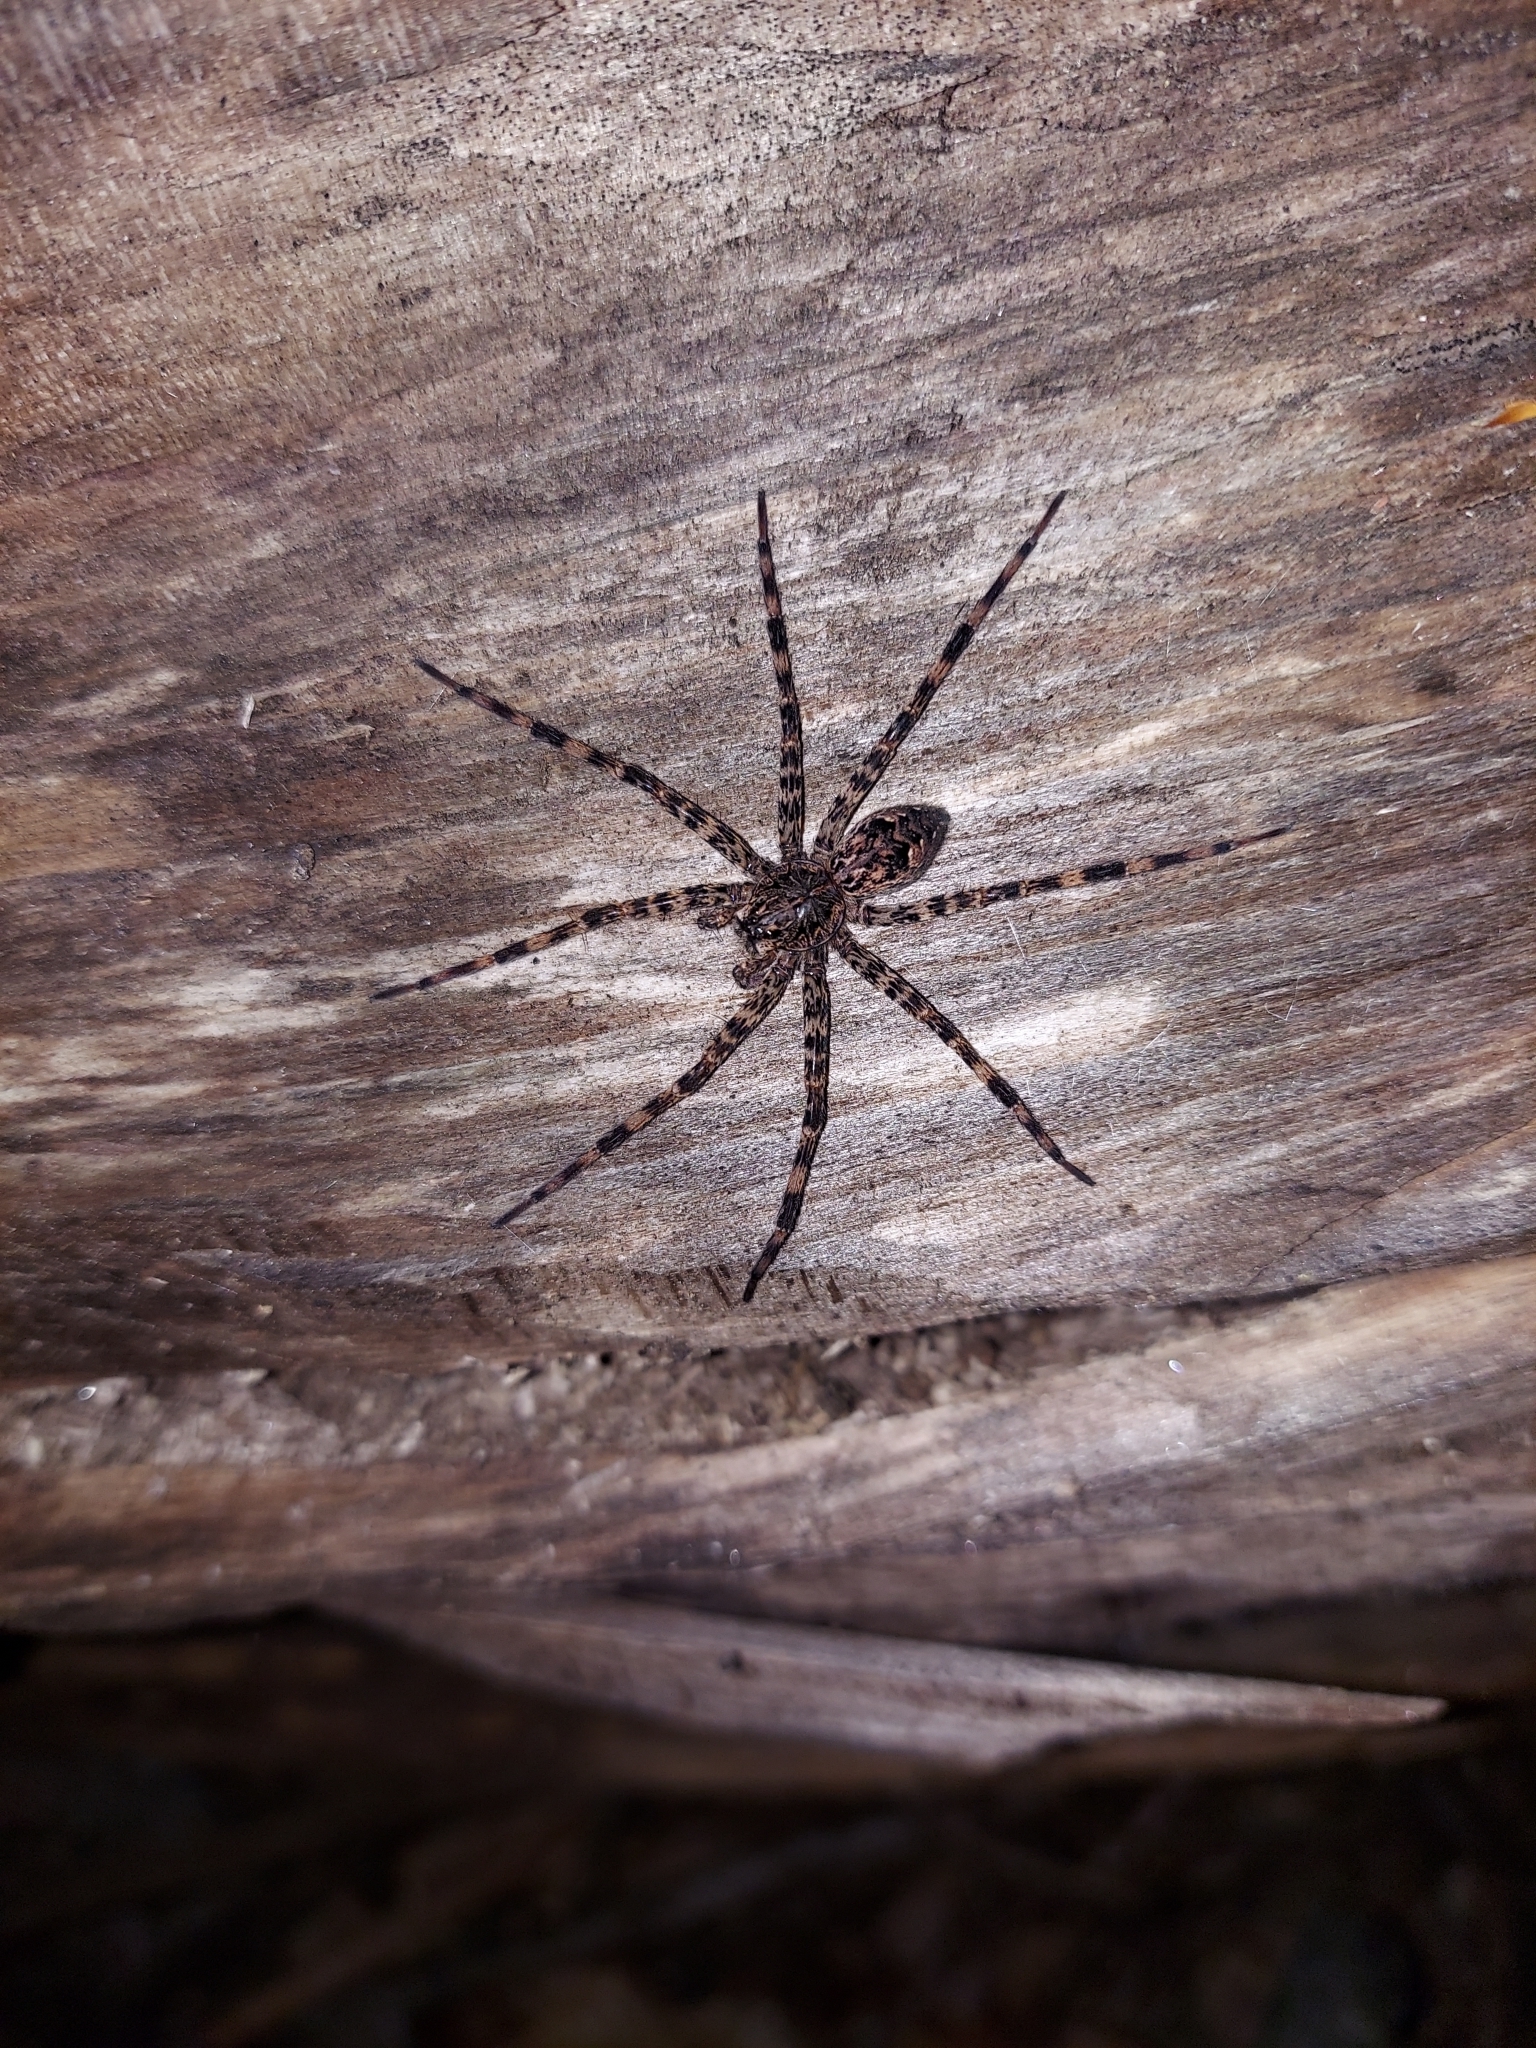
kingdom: Animalia
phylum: Arthropoda
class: Arachnida
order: Araneae
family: Pisauridae
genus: Dolomedes
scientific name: Dolomedes tenebrosus
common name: Dark fishing spider
